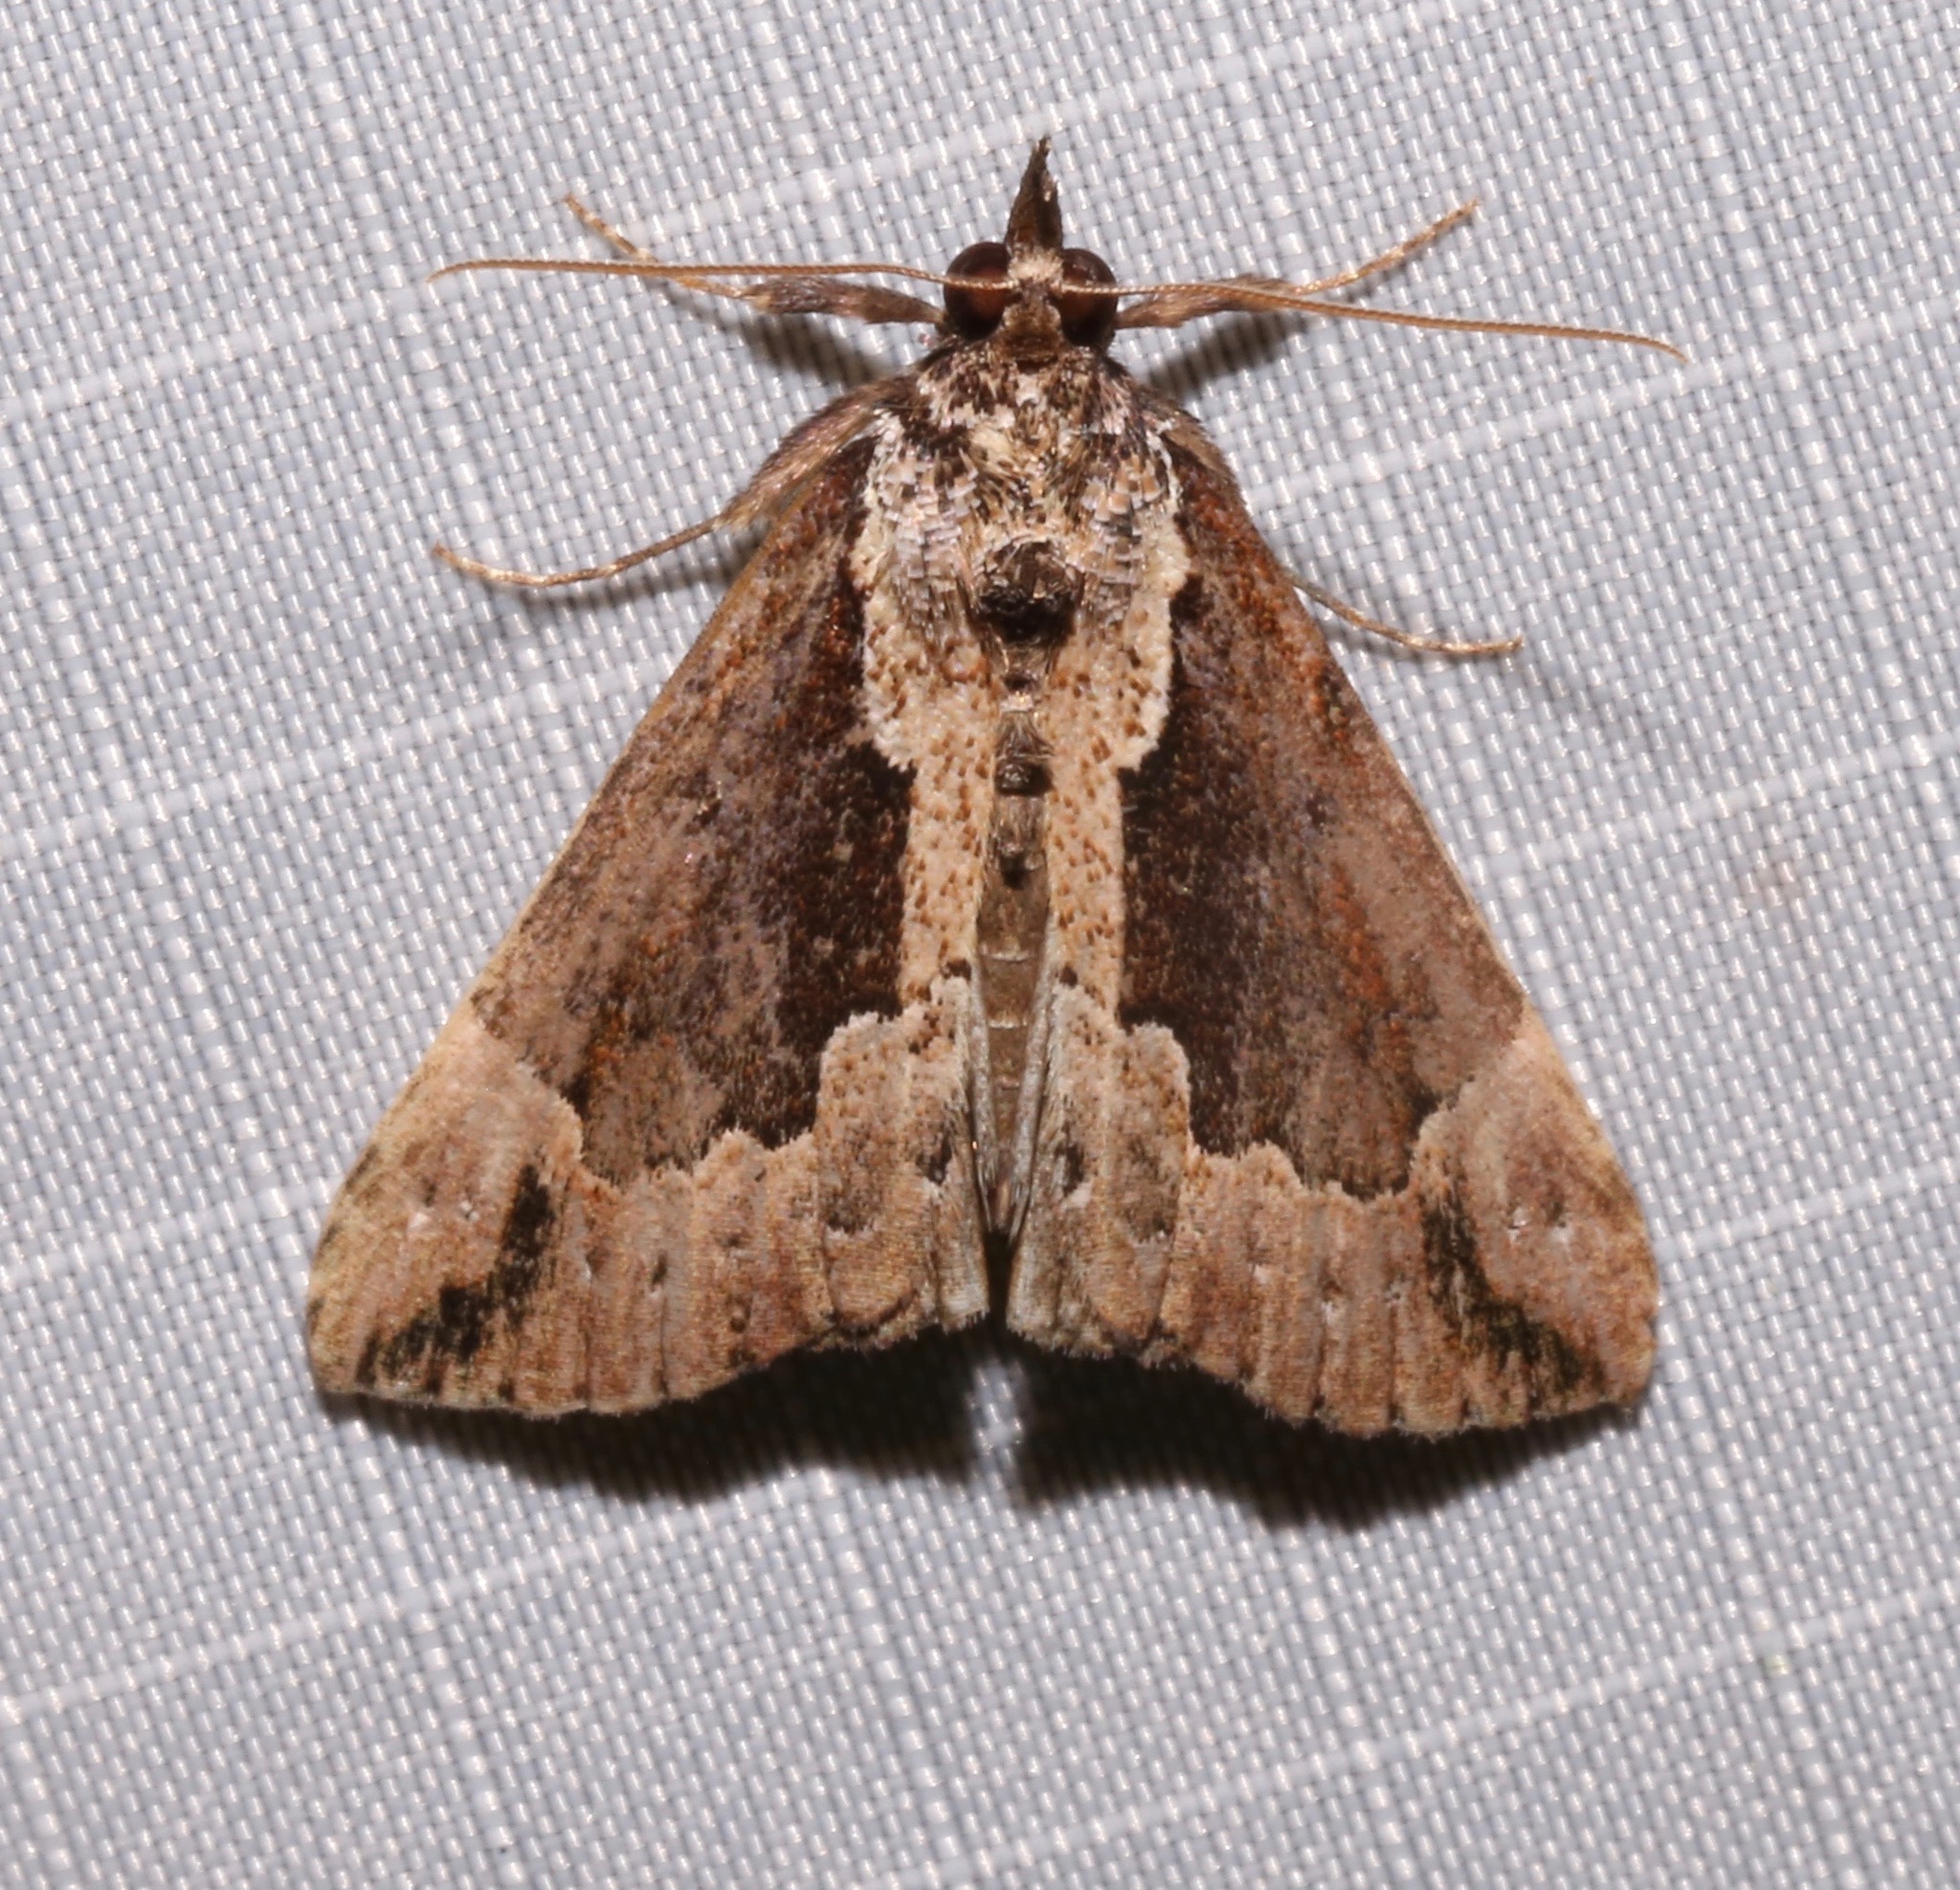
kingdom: Animalia
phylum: Arthropoda
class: Insecta
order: Lepidoptera
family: Erebidae
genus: Hypena
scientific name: Hypena baltimoralis
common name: Baltimore snout
